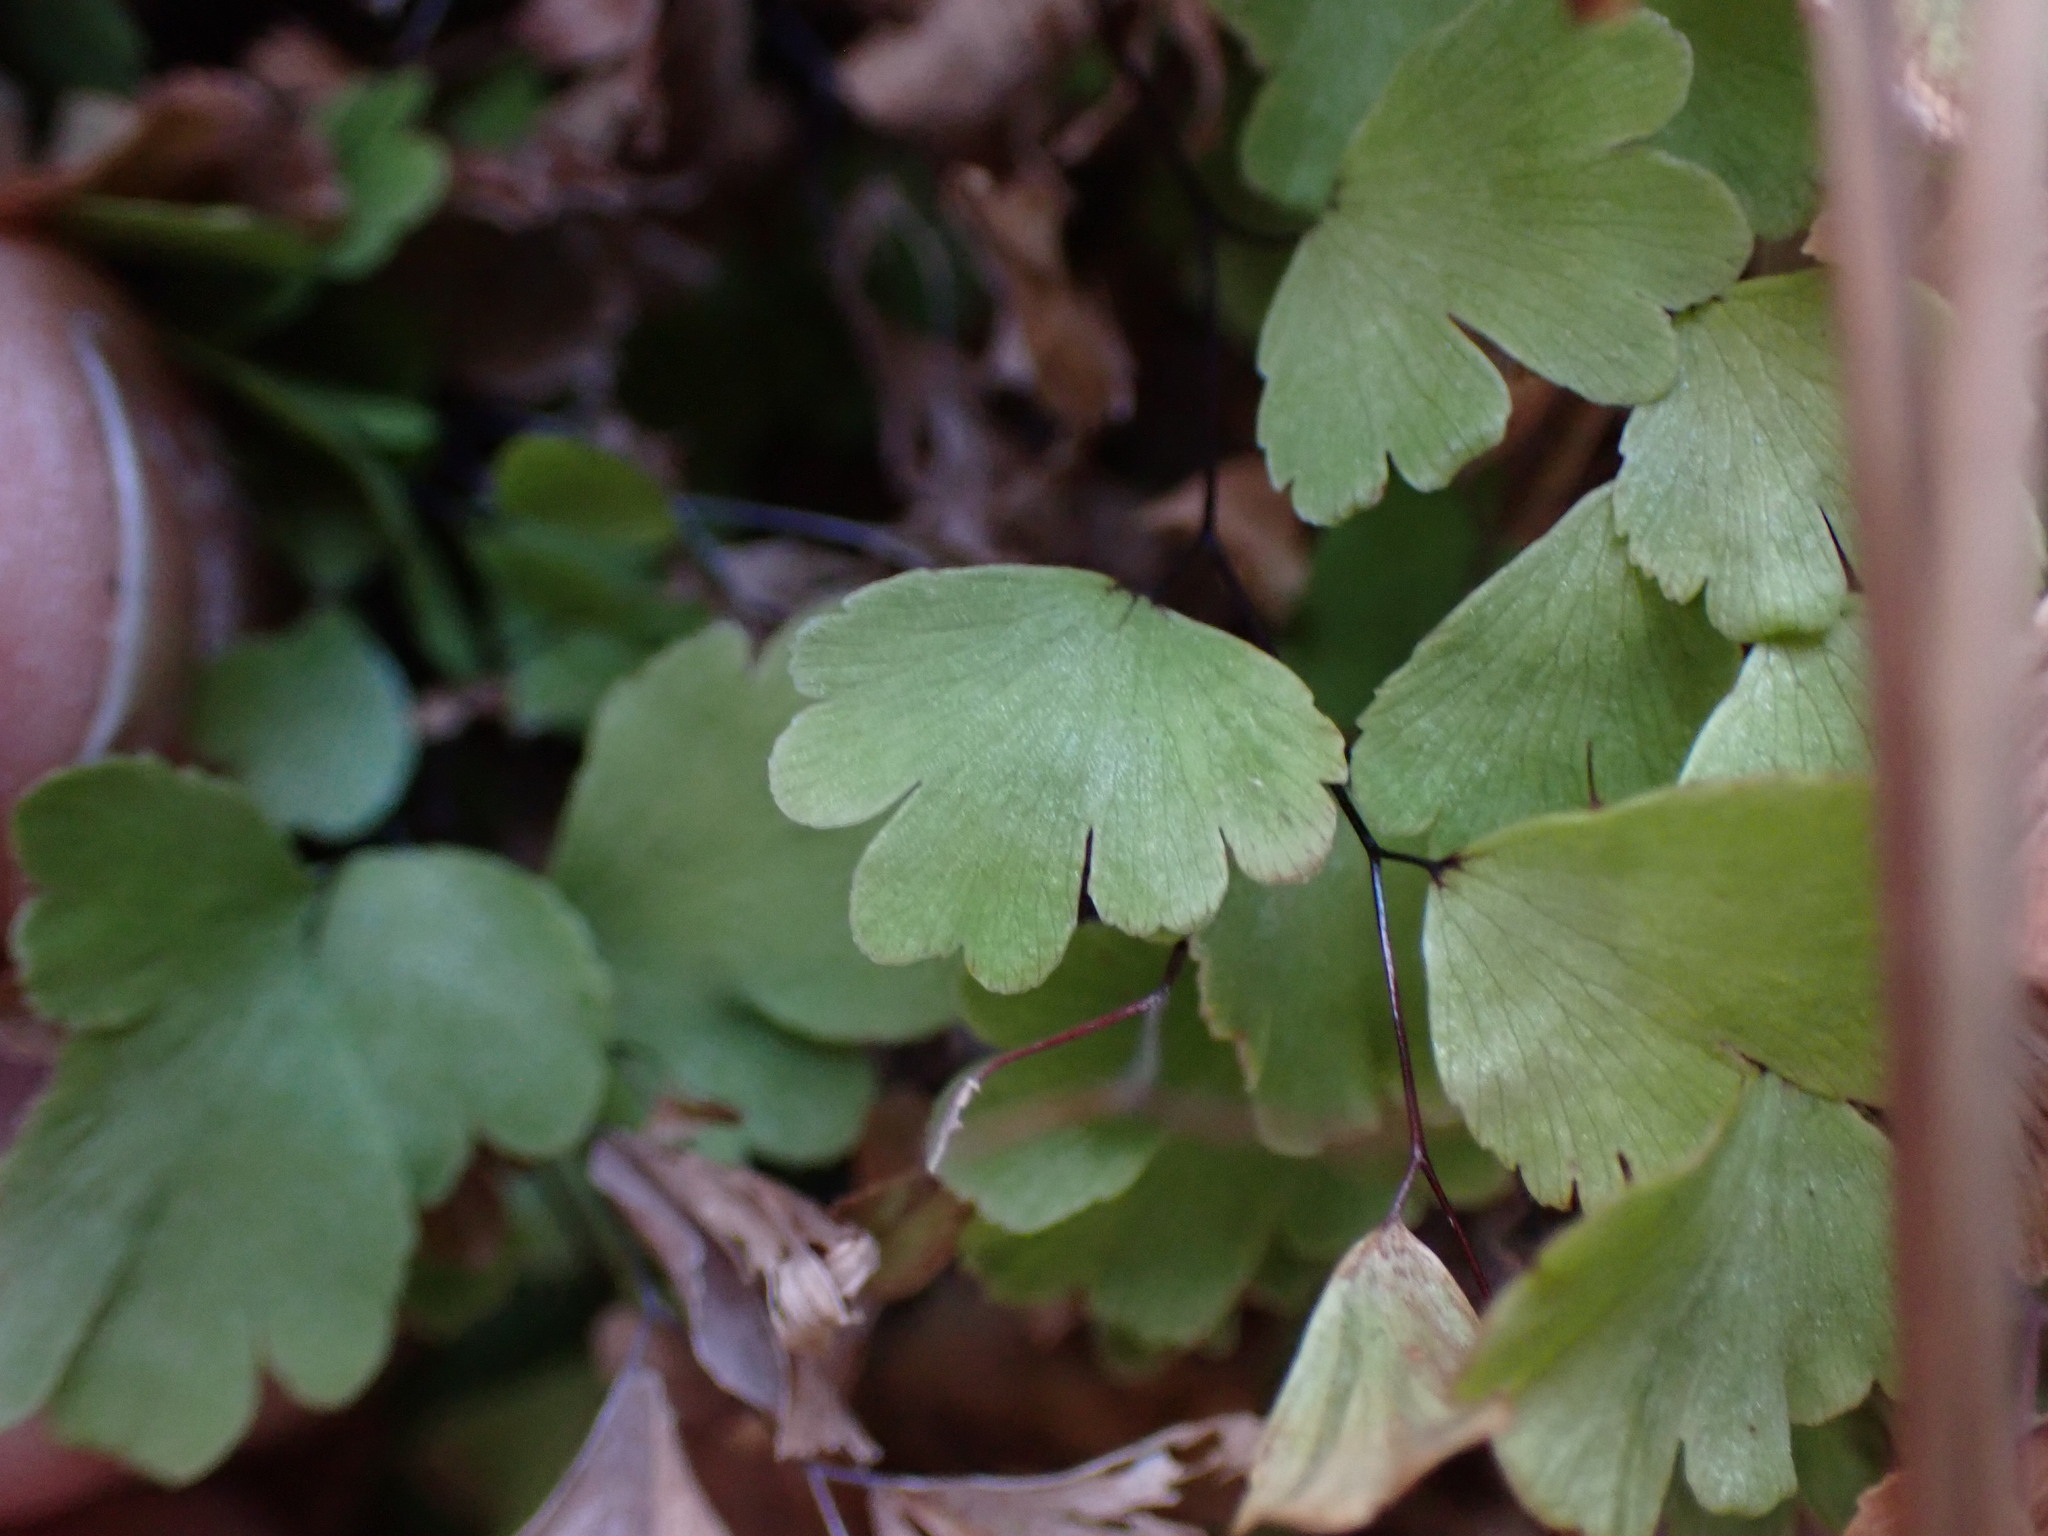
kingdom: Plantae
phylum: Tracheophyta
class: Polypodiopsida
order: Polypodiales
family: Pteridaceae
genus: Adiantum
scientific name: Adiantum capillus-veneris
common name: Maidenhair fern
